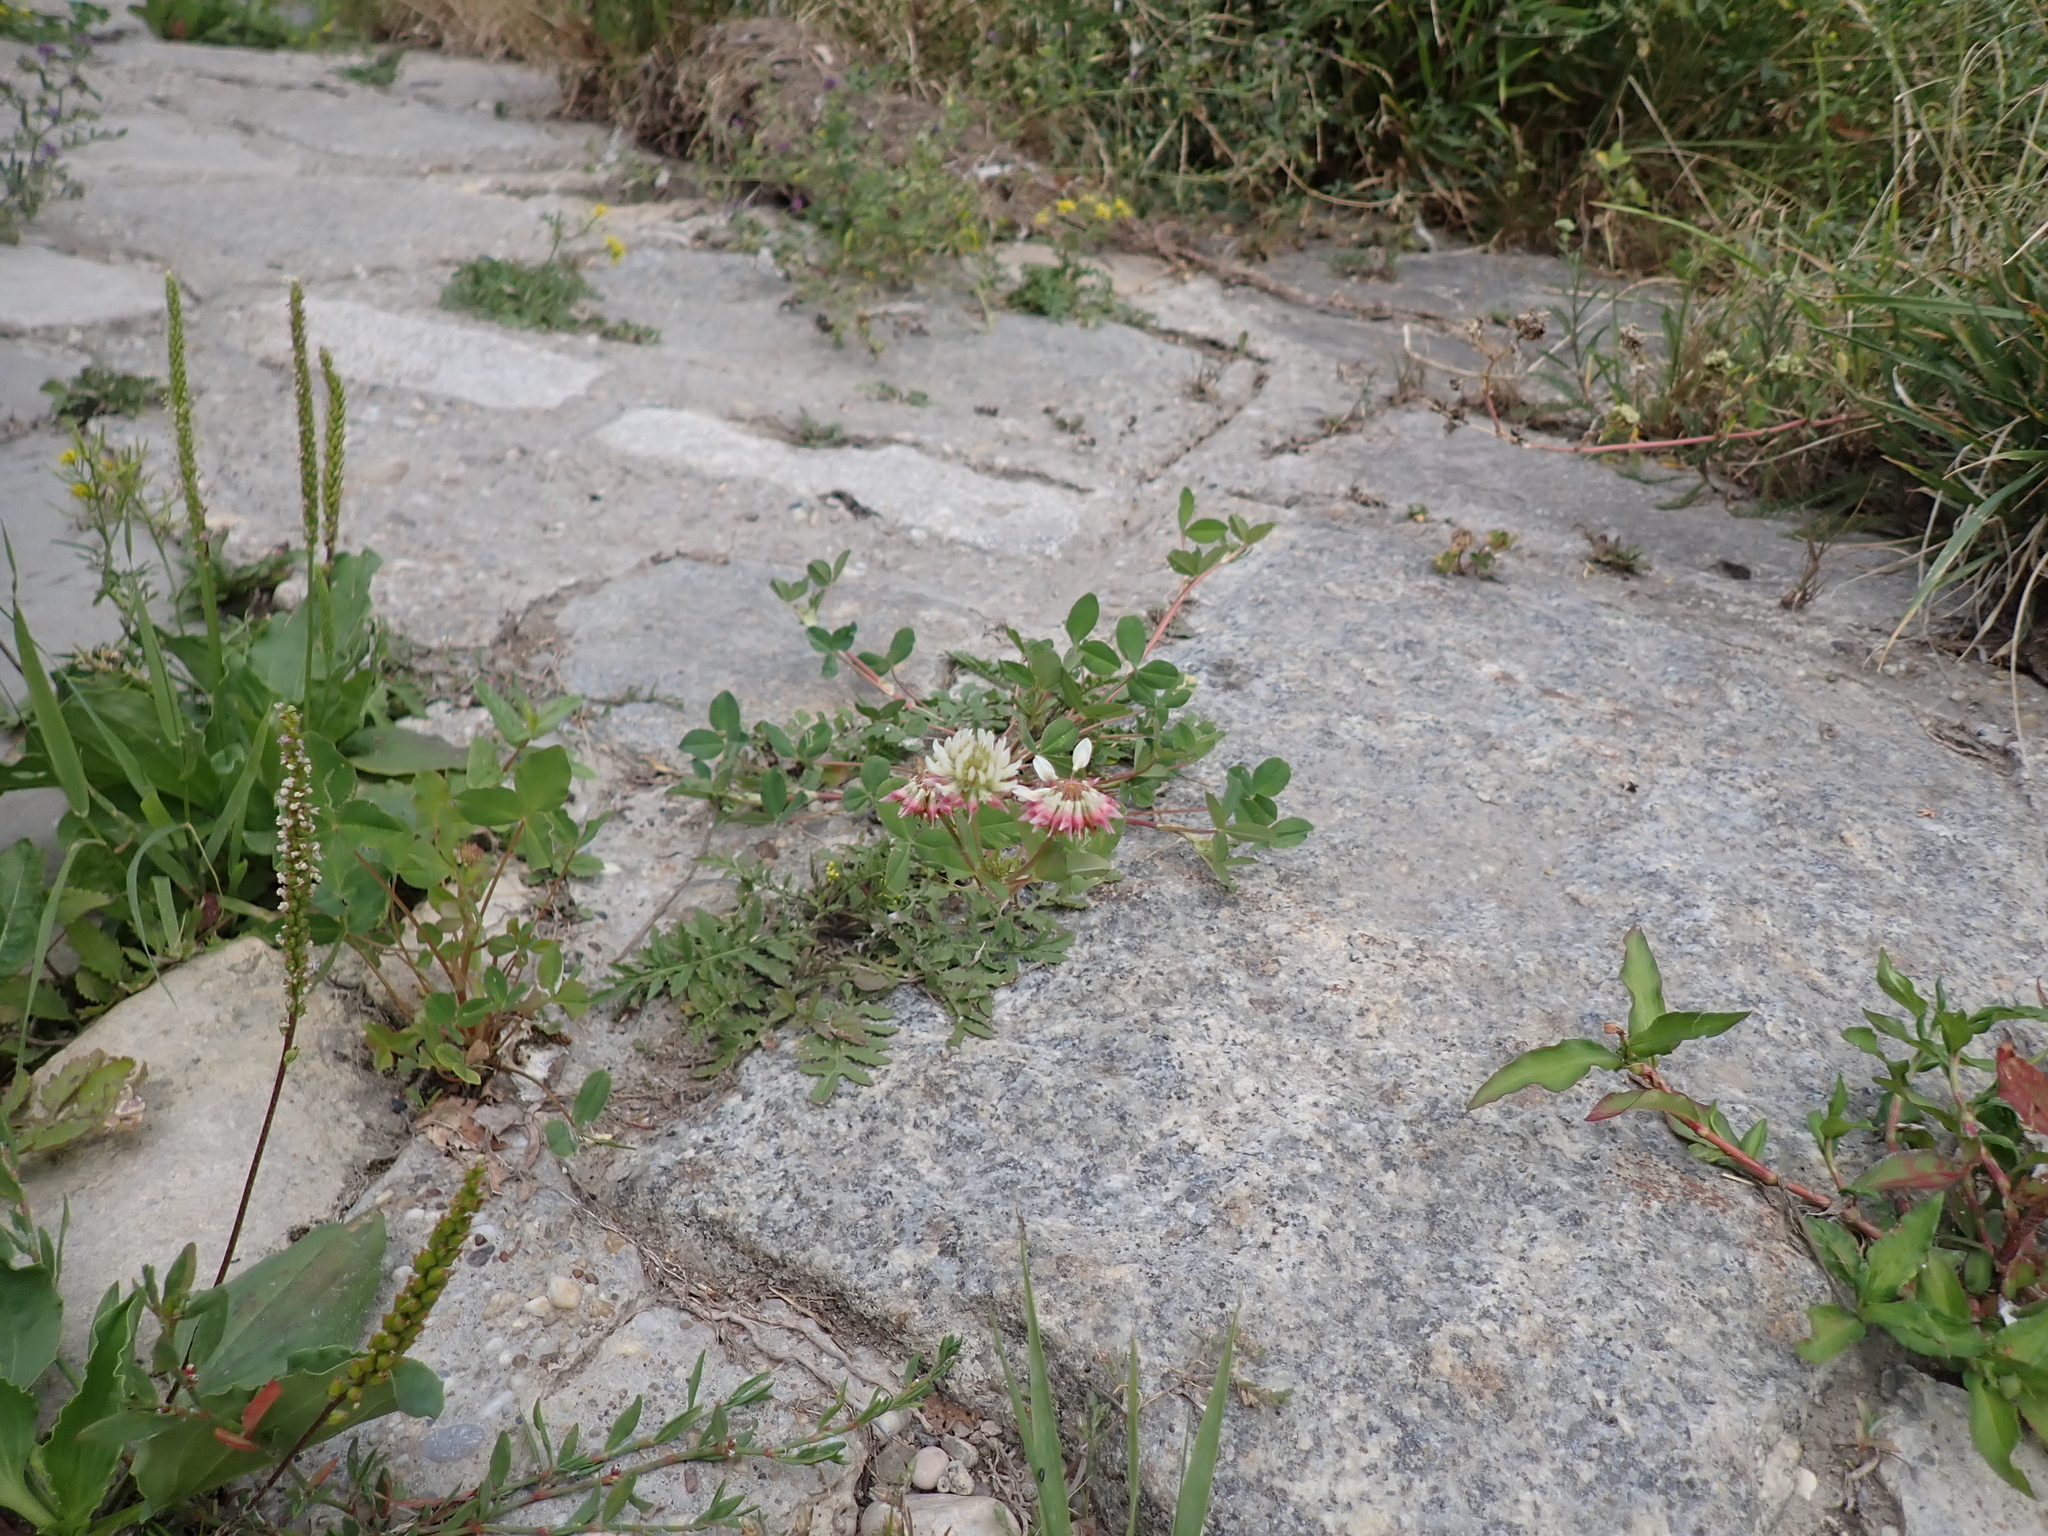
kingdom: Plantae
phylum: Tracheophyta
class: Magnoliopsida
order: Fabales
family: Fabaceae
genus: Trifolium
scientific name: Trifolium hybridum
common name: Alsike clover
